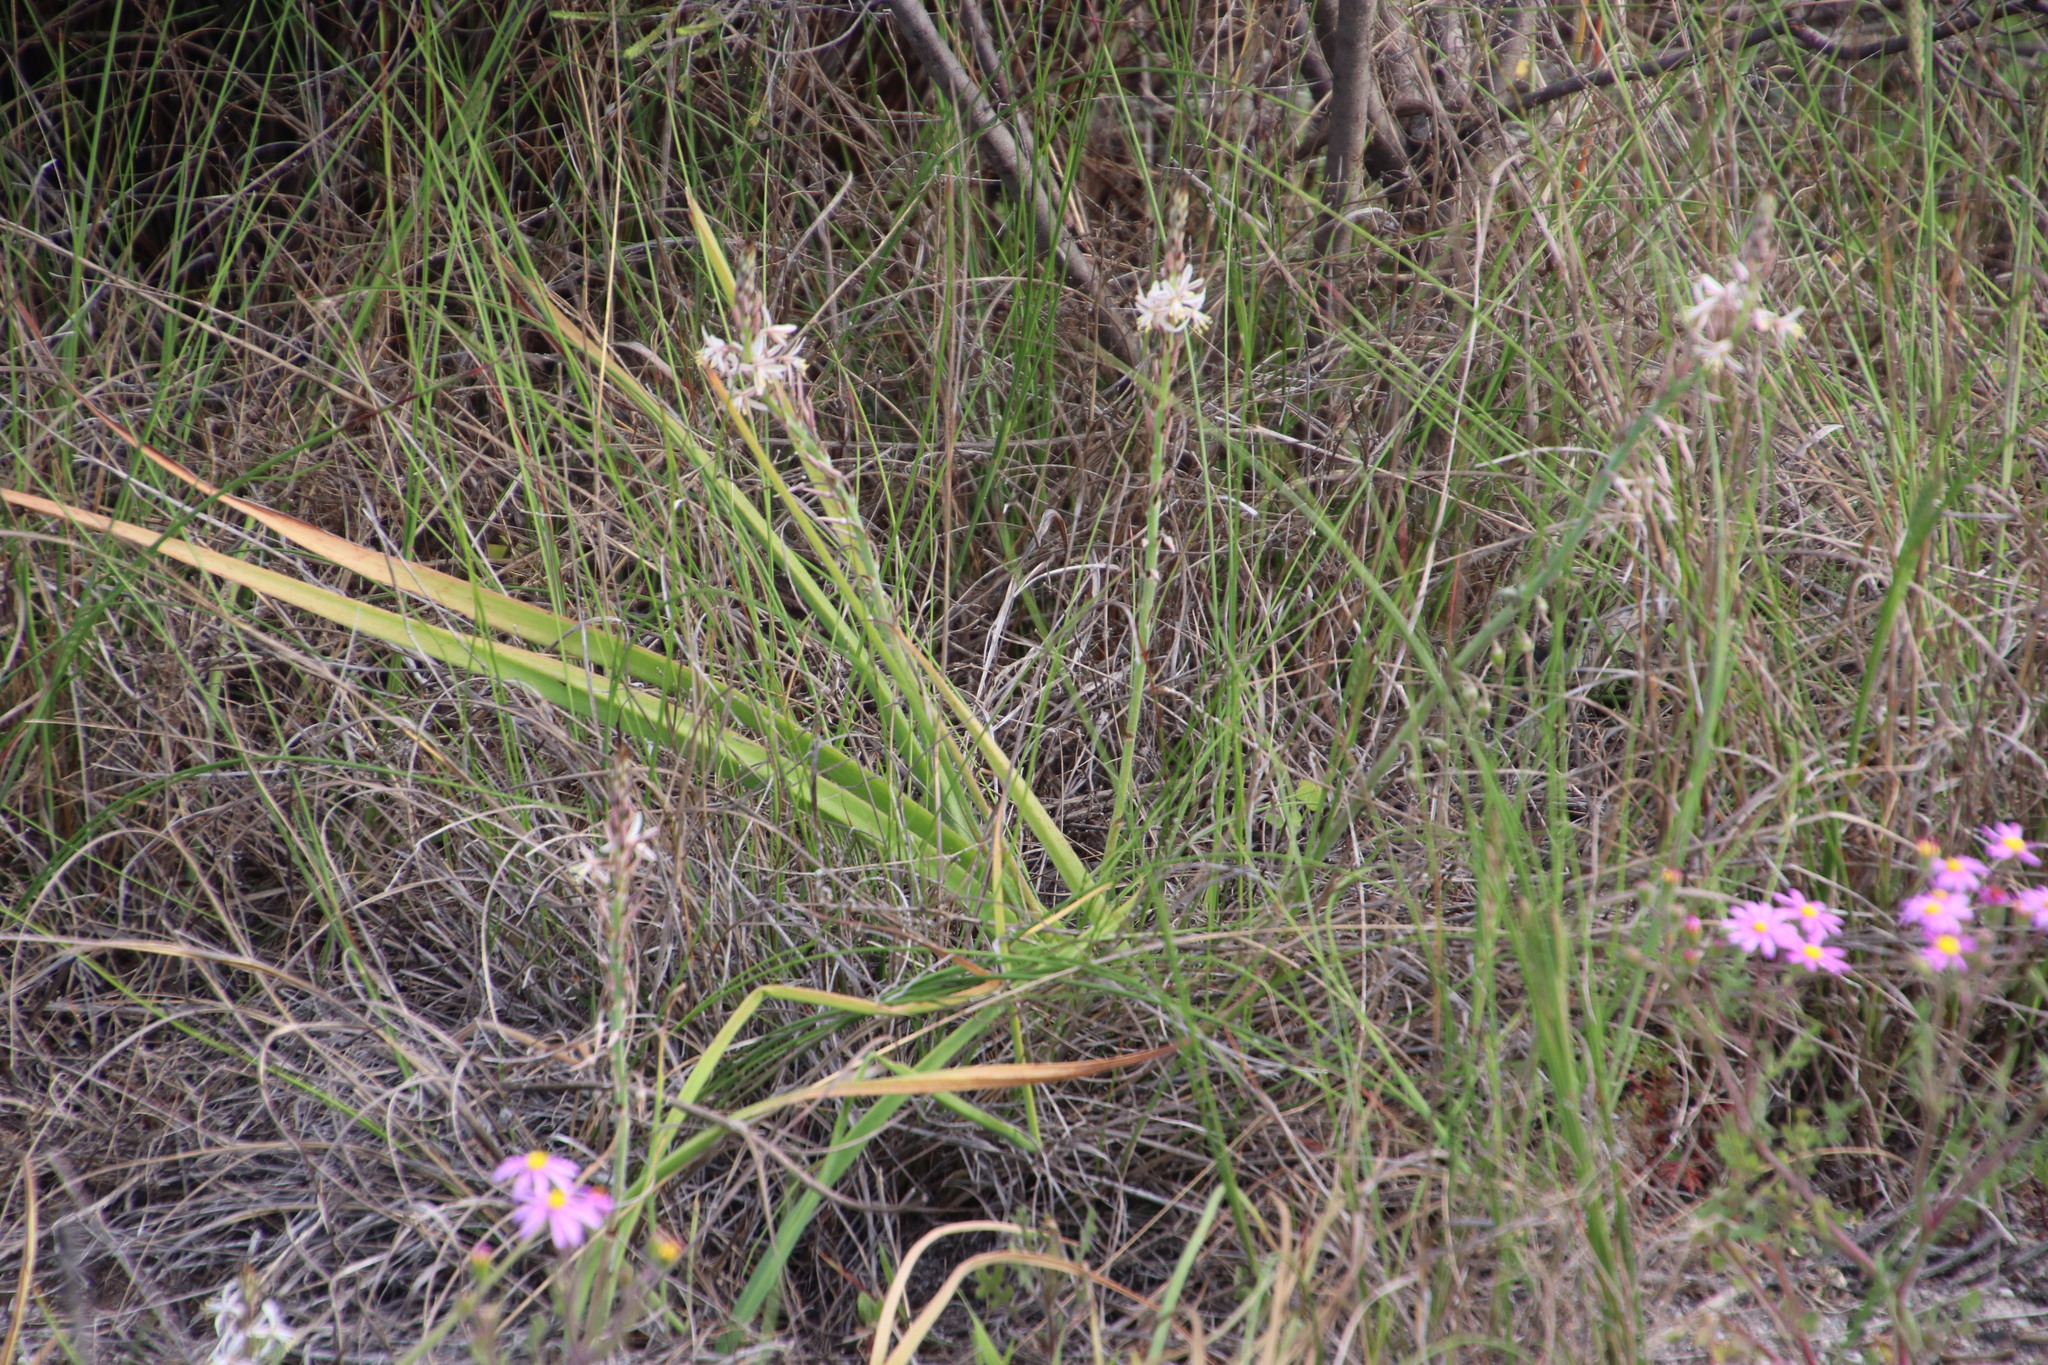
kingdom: Plantae
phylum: Tracheophyta
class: Liliopsida
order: Asparagales
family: Asphodelaceae
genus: Trachyandra
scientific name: Trachyandra ciliata
